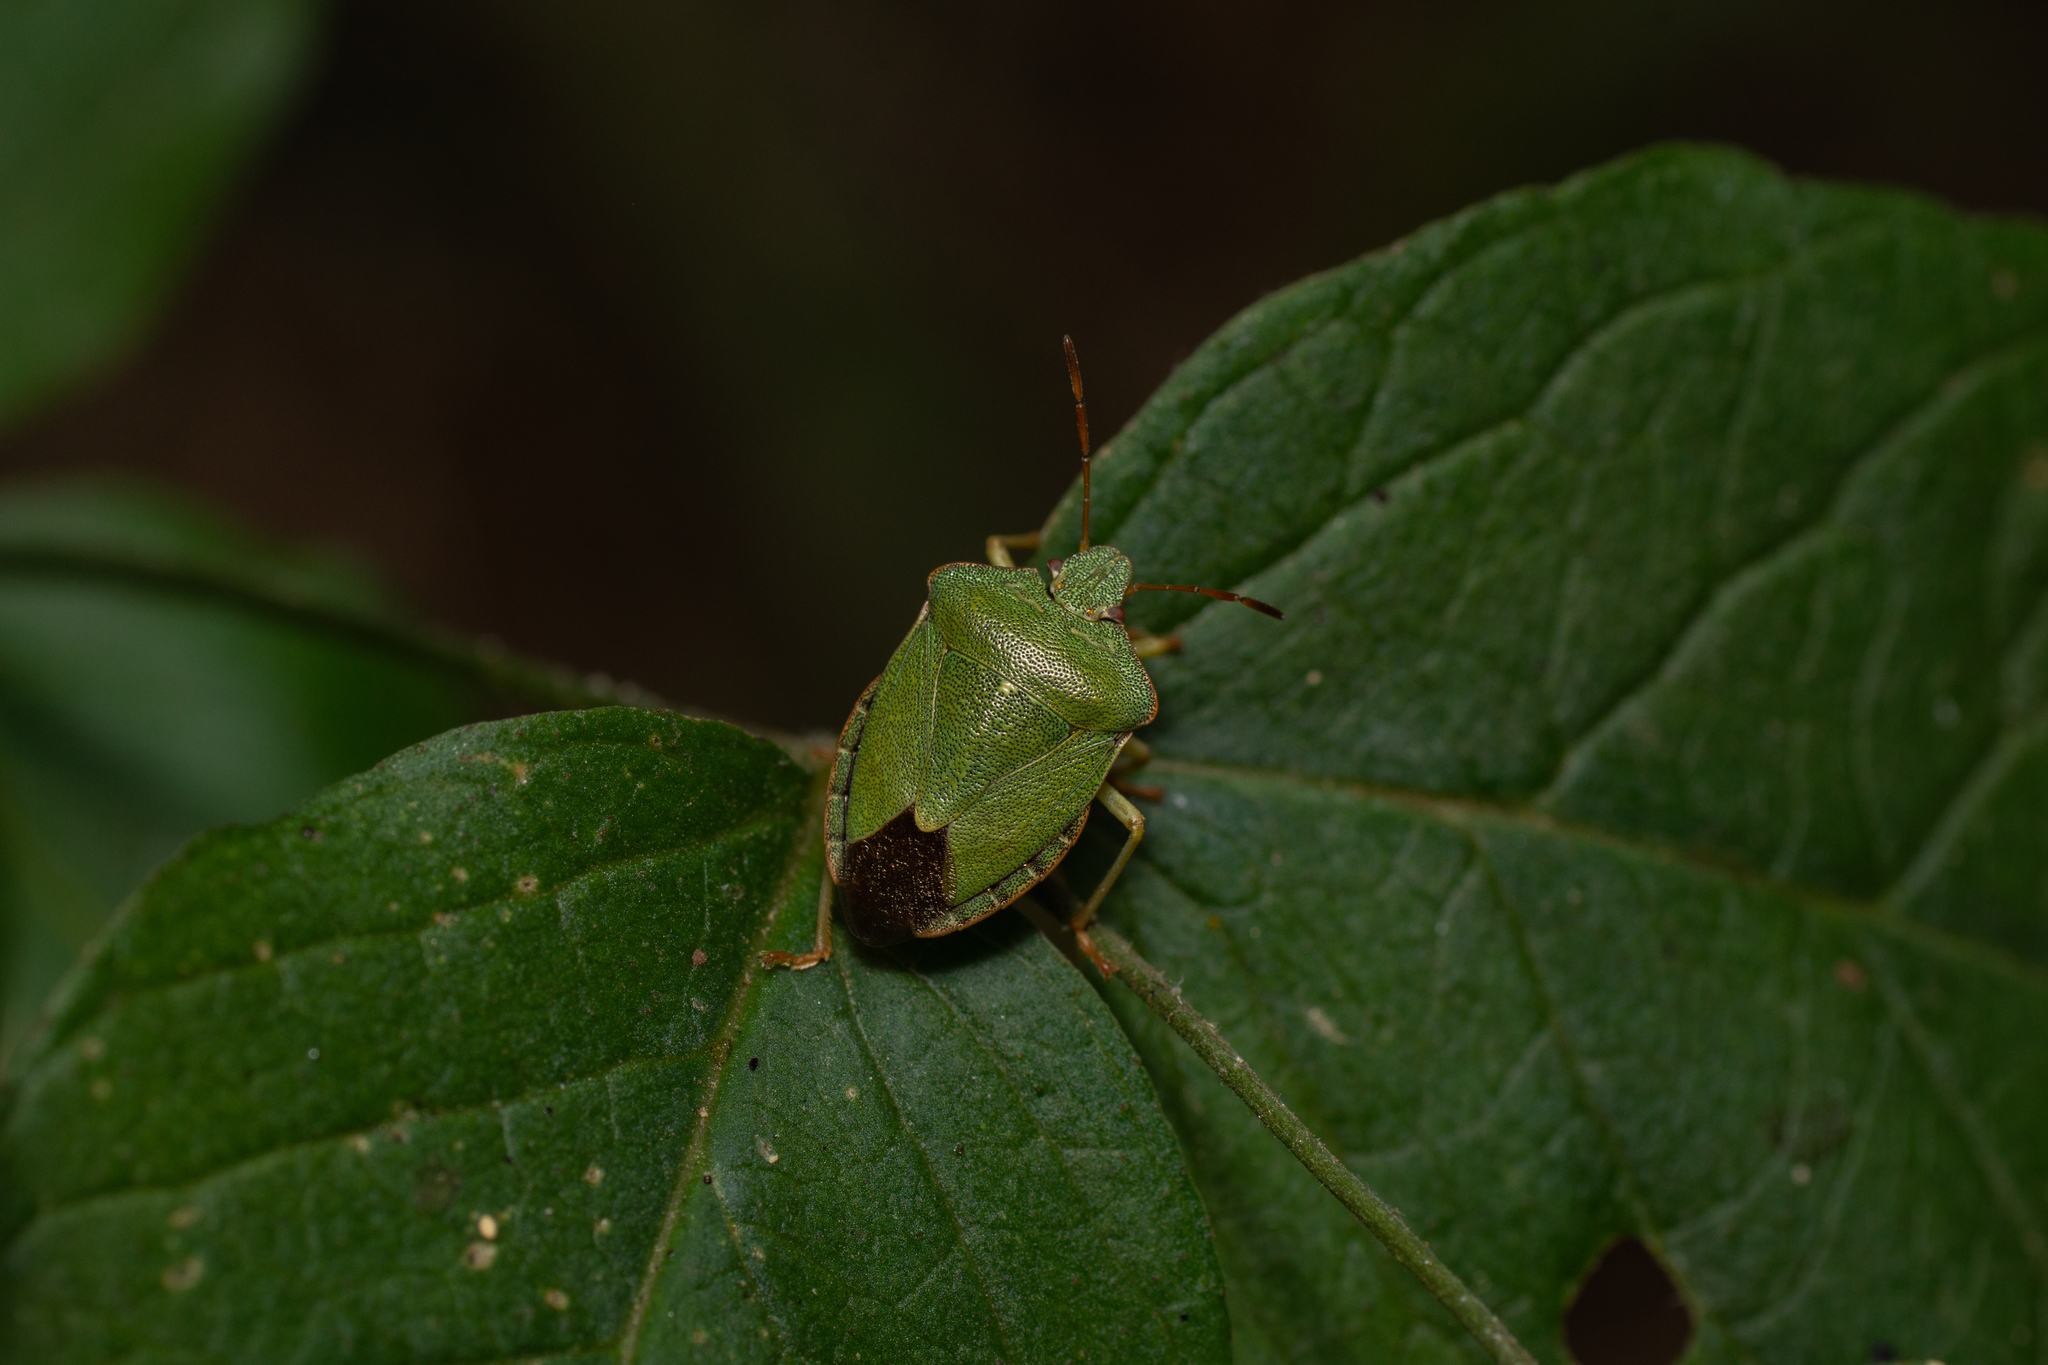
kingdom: Animalia
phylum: Arthropoda
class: Insecta
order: Hemiptera
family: Pentatomidae
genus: Palomena
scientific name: Palomena prasina
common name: Green shieldbug
